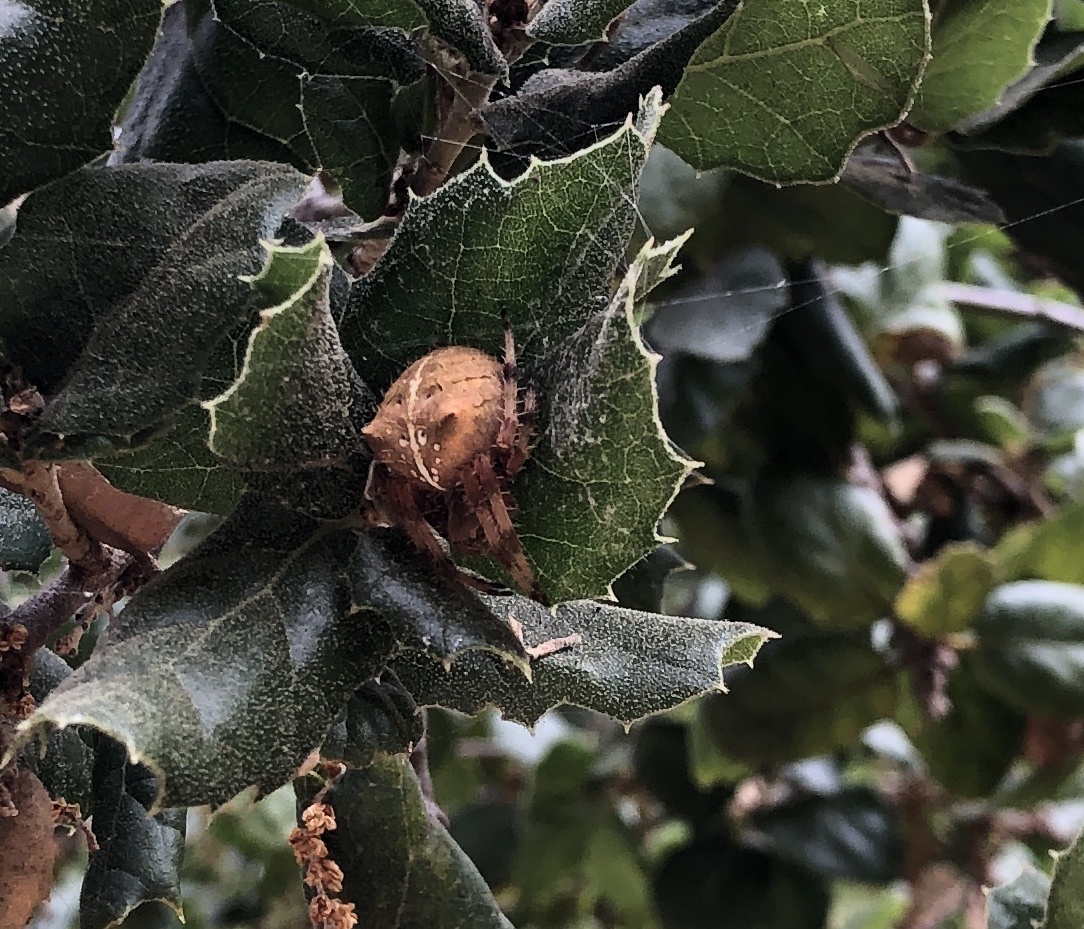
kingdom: Animalia
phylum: Arthropoda
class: Arachnida
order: Araneae
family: Araneidae
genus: Araneus
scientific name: Araneus gemma
